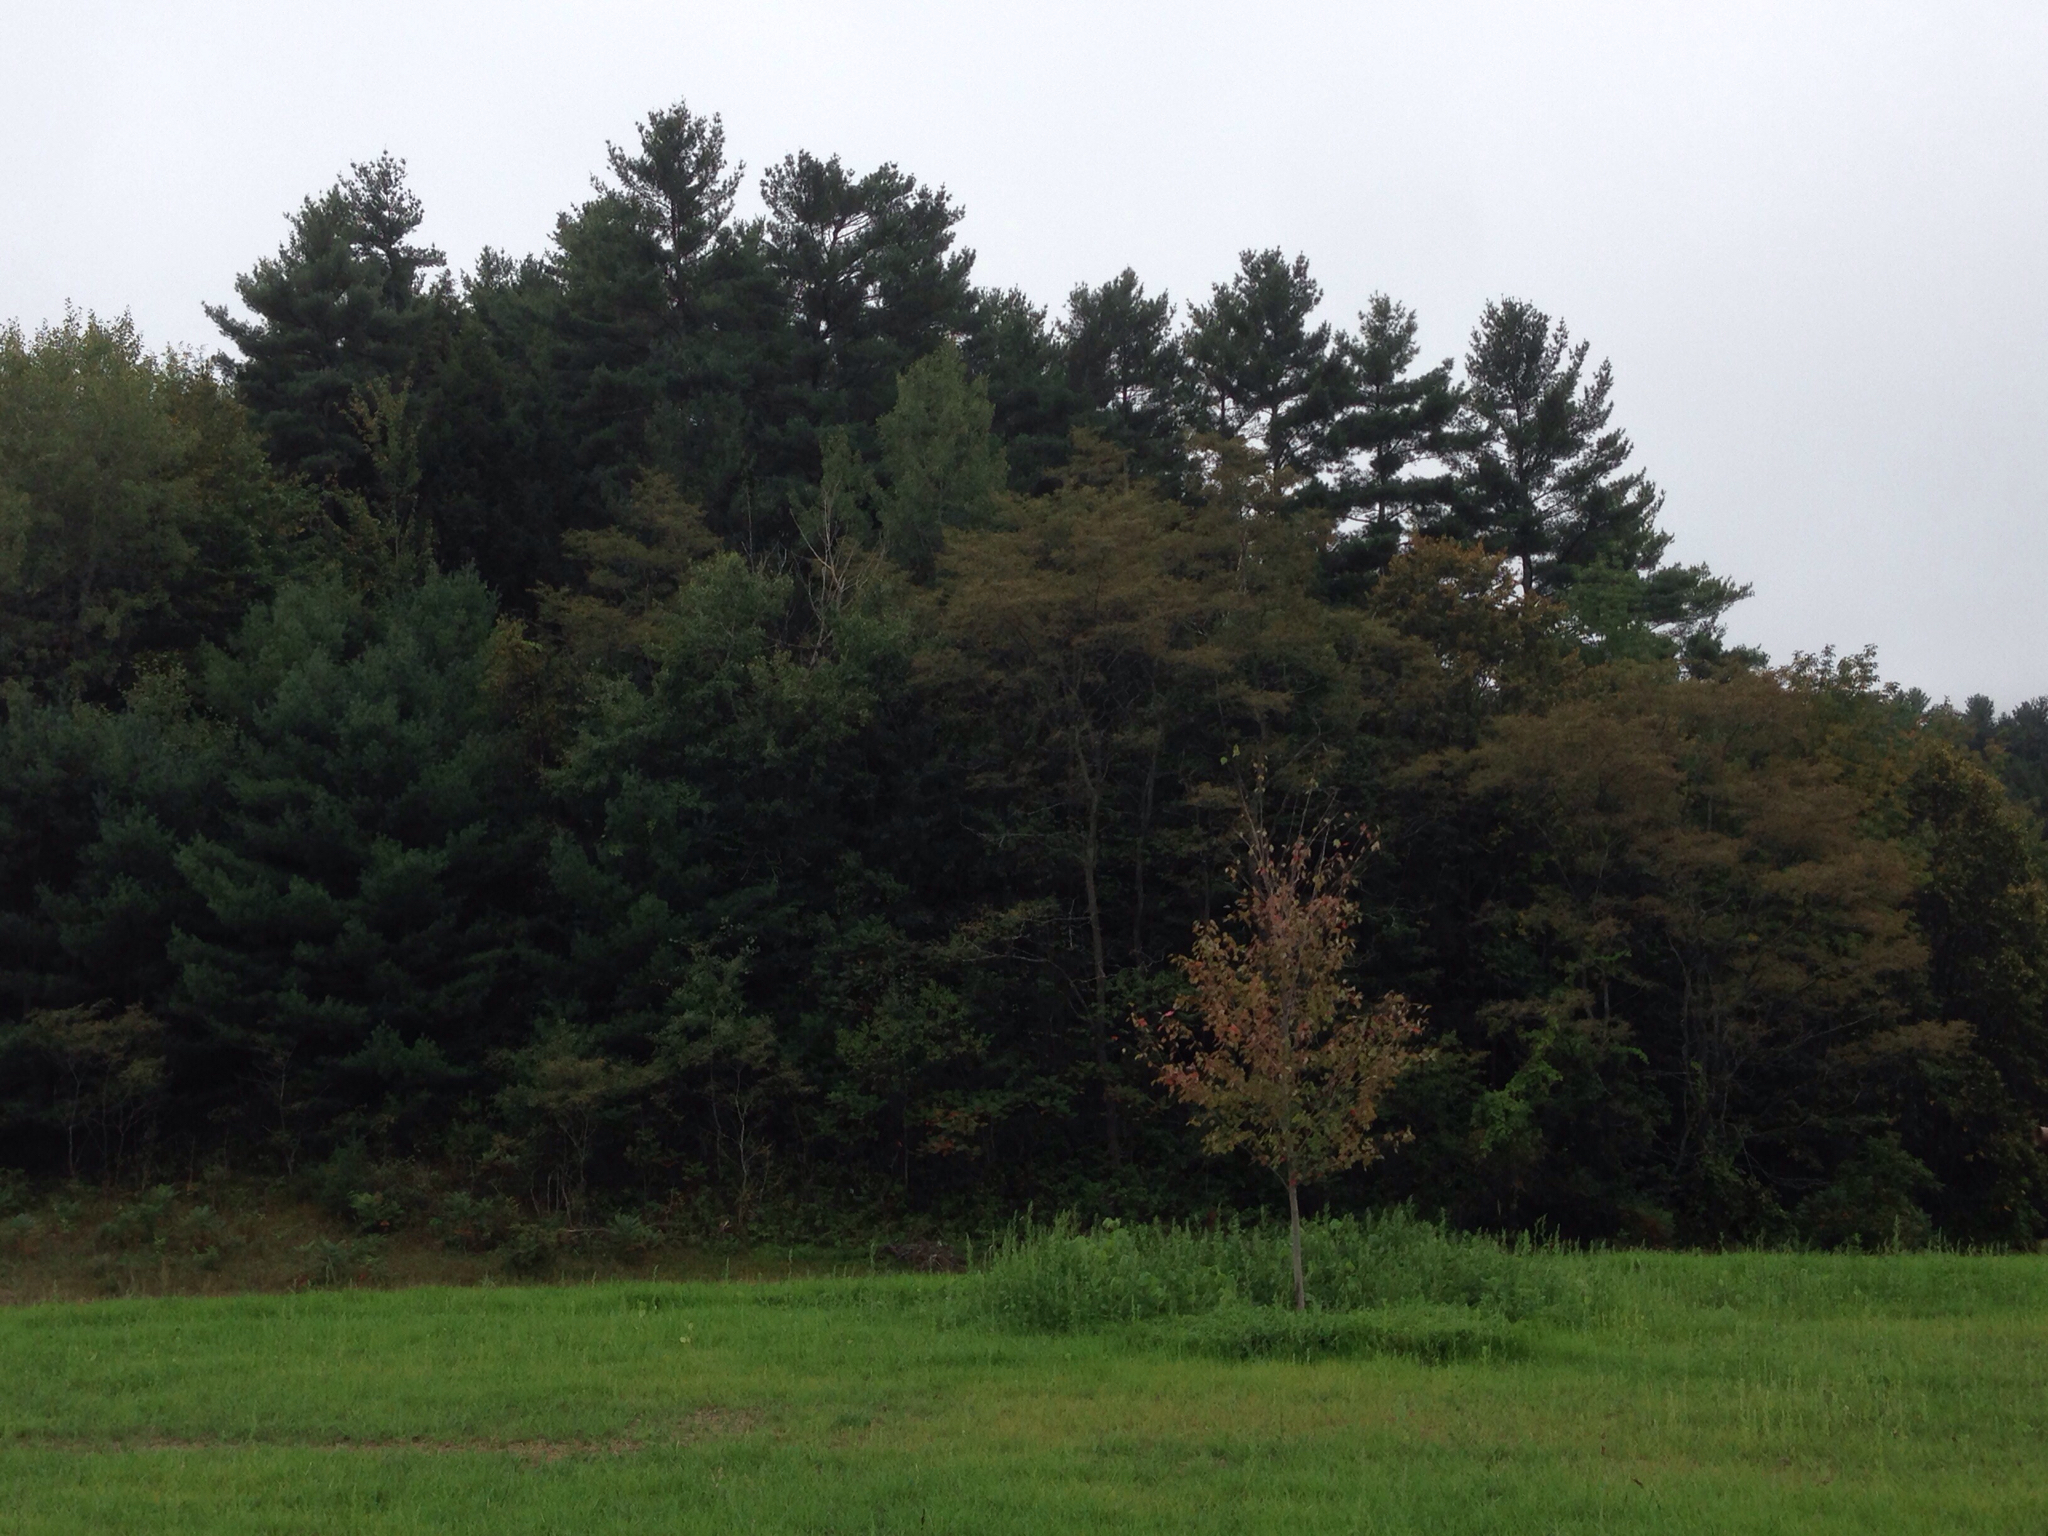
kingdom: Plantae
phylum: Tracheophyta
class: Pinopsida
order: Pinales
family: Pinaceae
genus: Pinus
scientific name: Pinus strobus
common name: Weymouth pine
